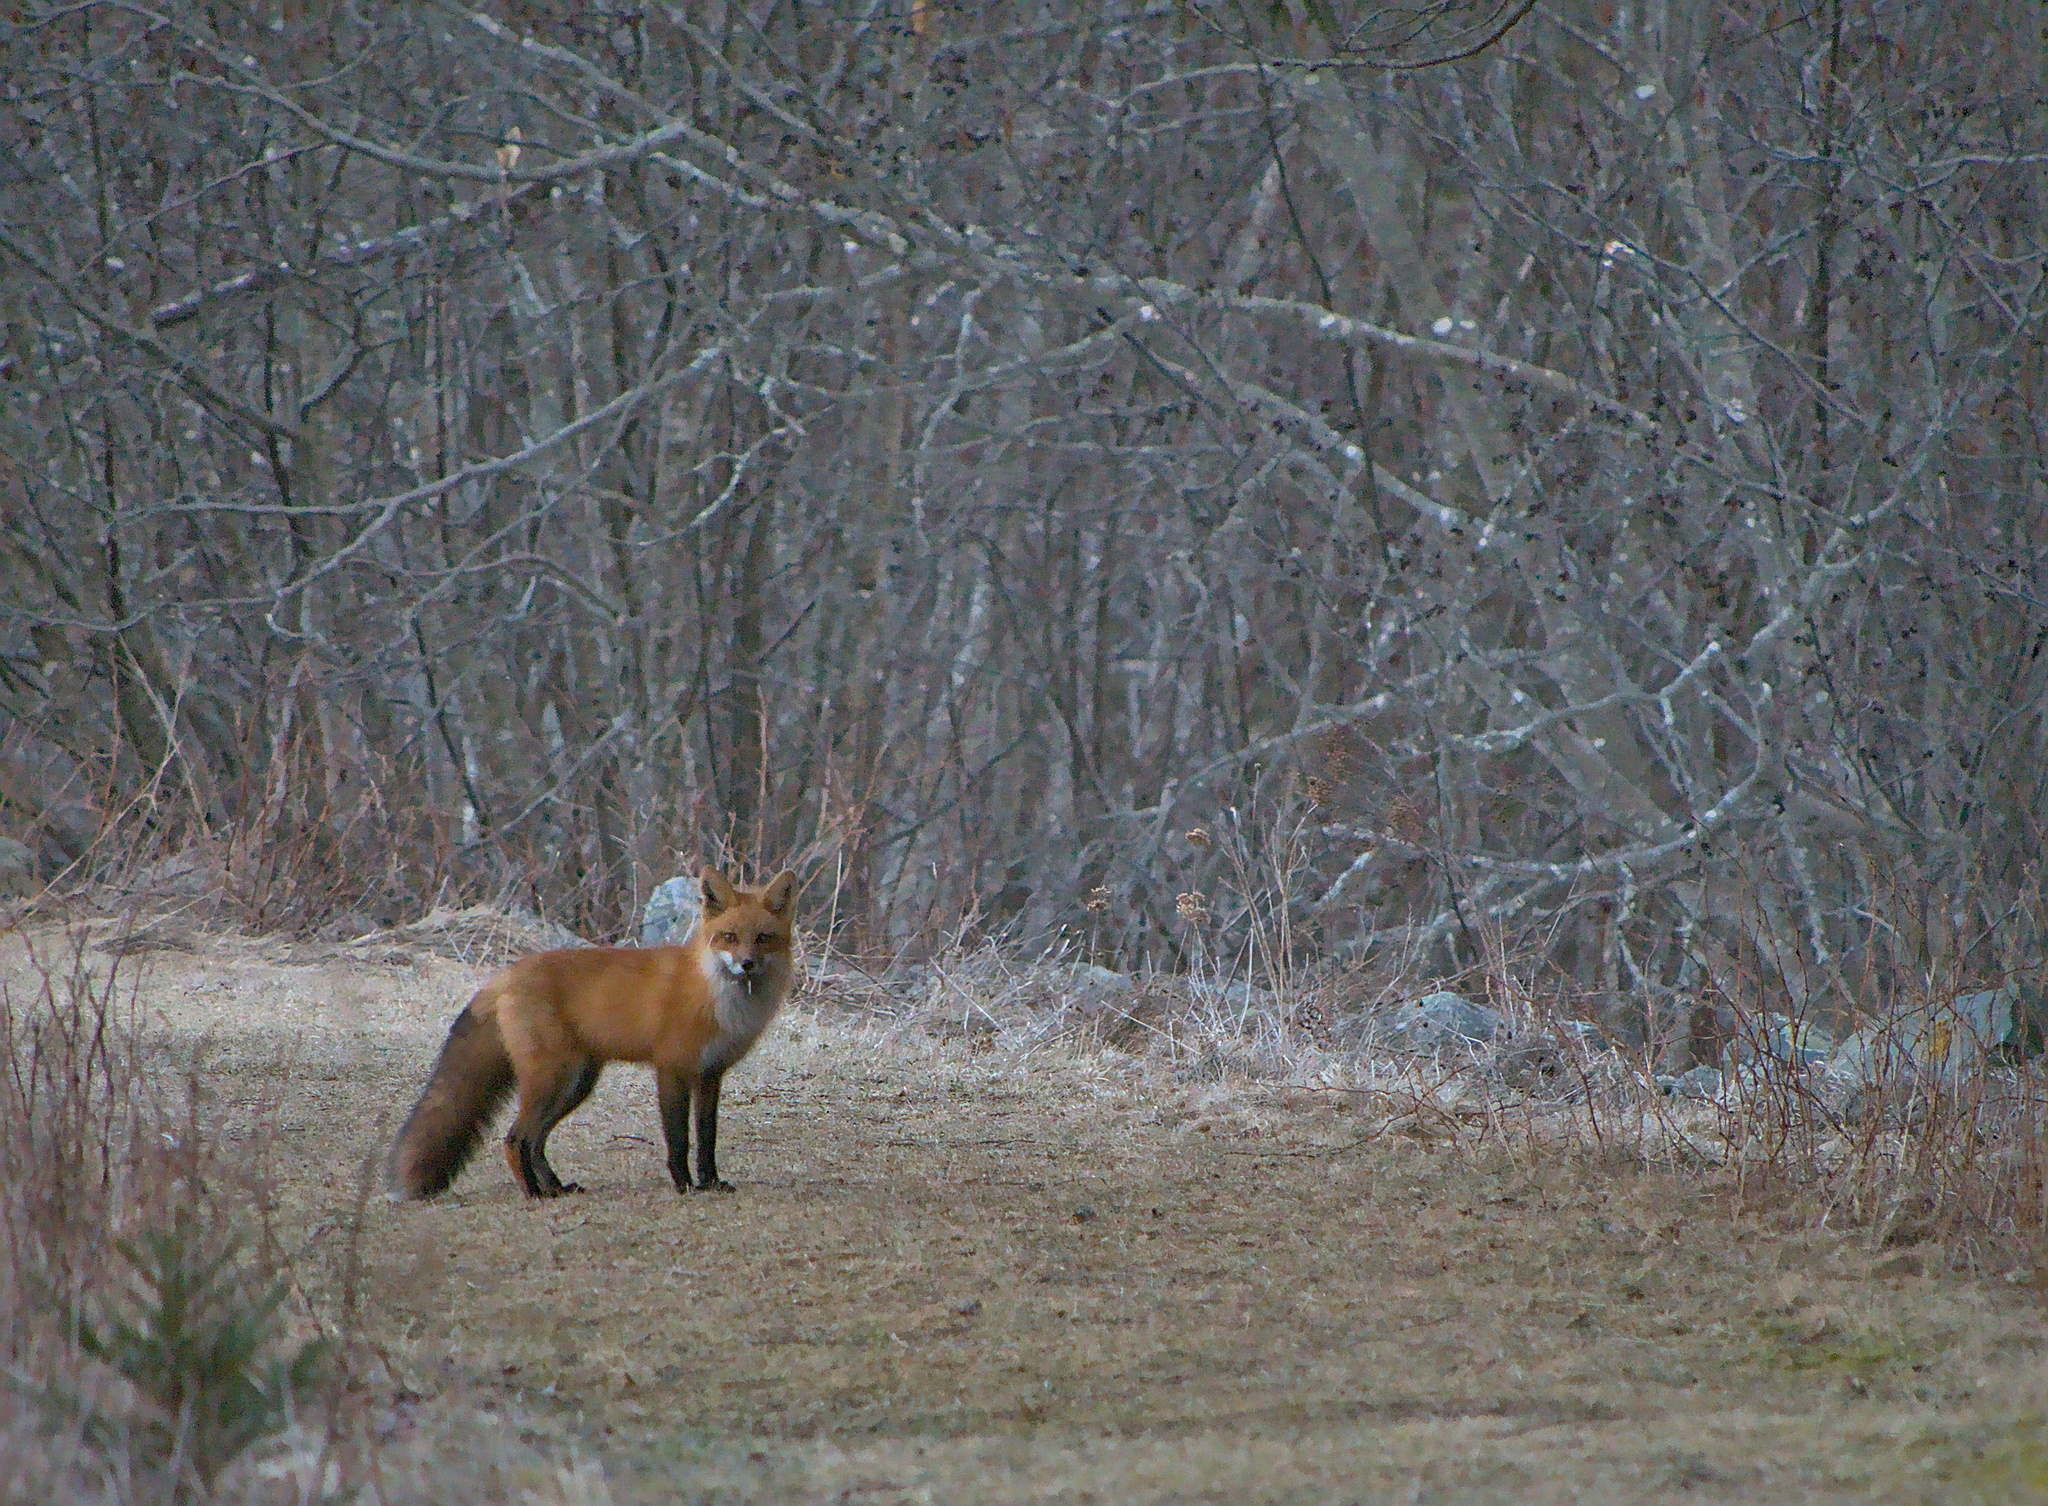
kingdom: Animalia
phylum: Chordata
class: Mammalia
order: Carnivora
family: Canidae
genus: Vulpes
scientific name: Vulpes vulpes
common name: Red fox
